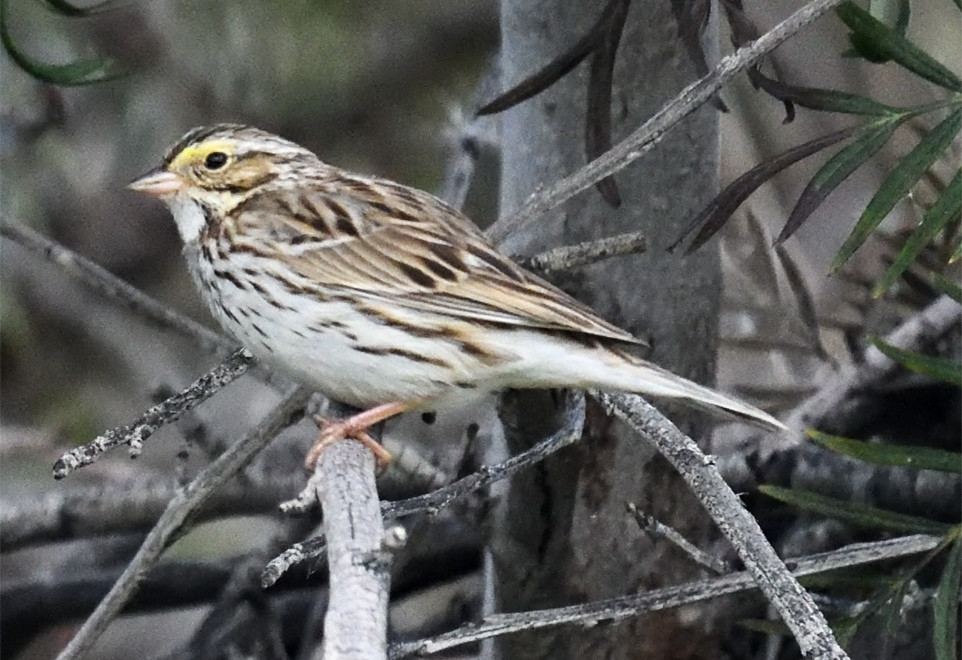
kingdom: Animalia
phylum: Chordata
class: Aves
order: Passeriformes
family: Passerellidae
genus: Passerculus
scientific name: Passerculus sandwichensis
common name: Savannah sparrow
